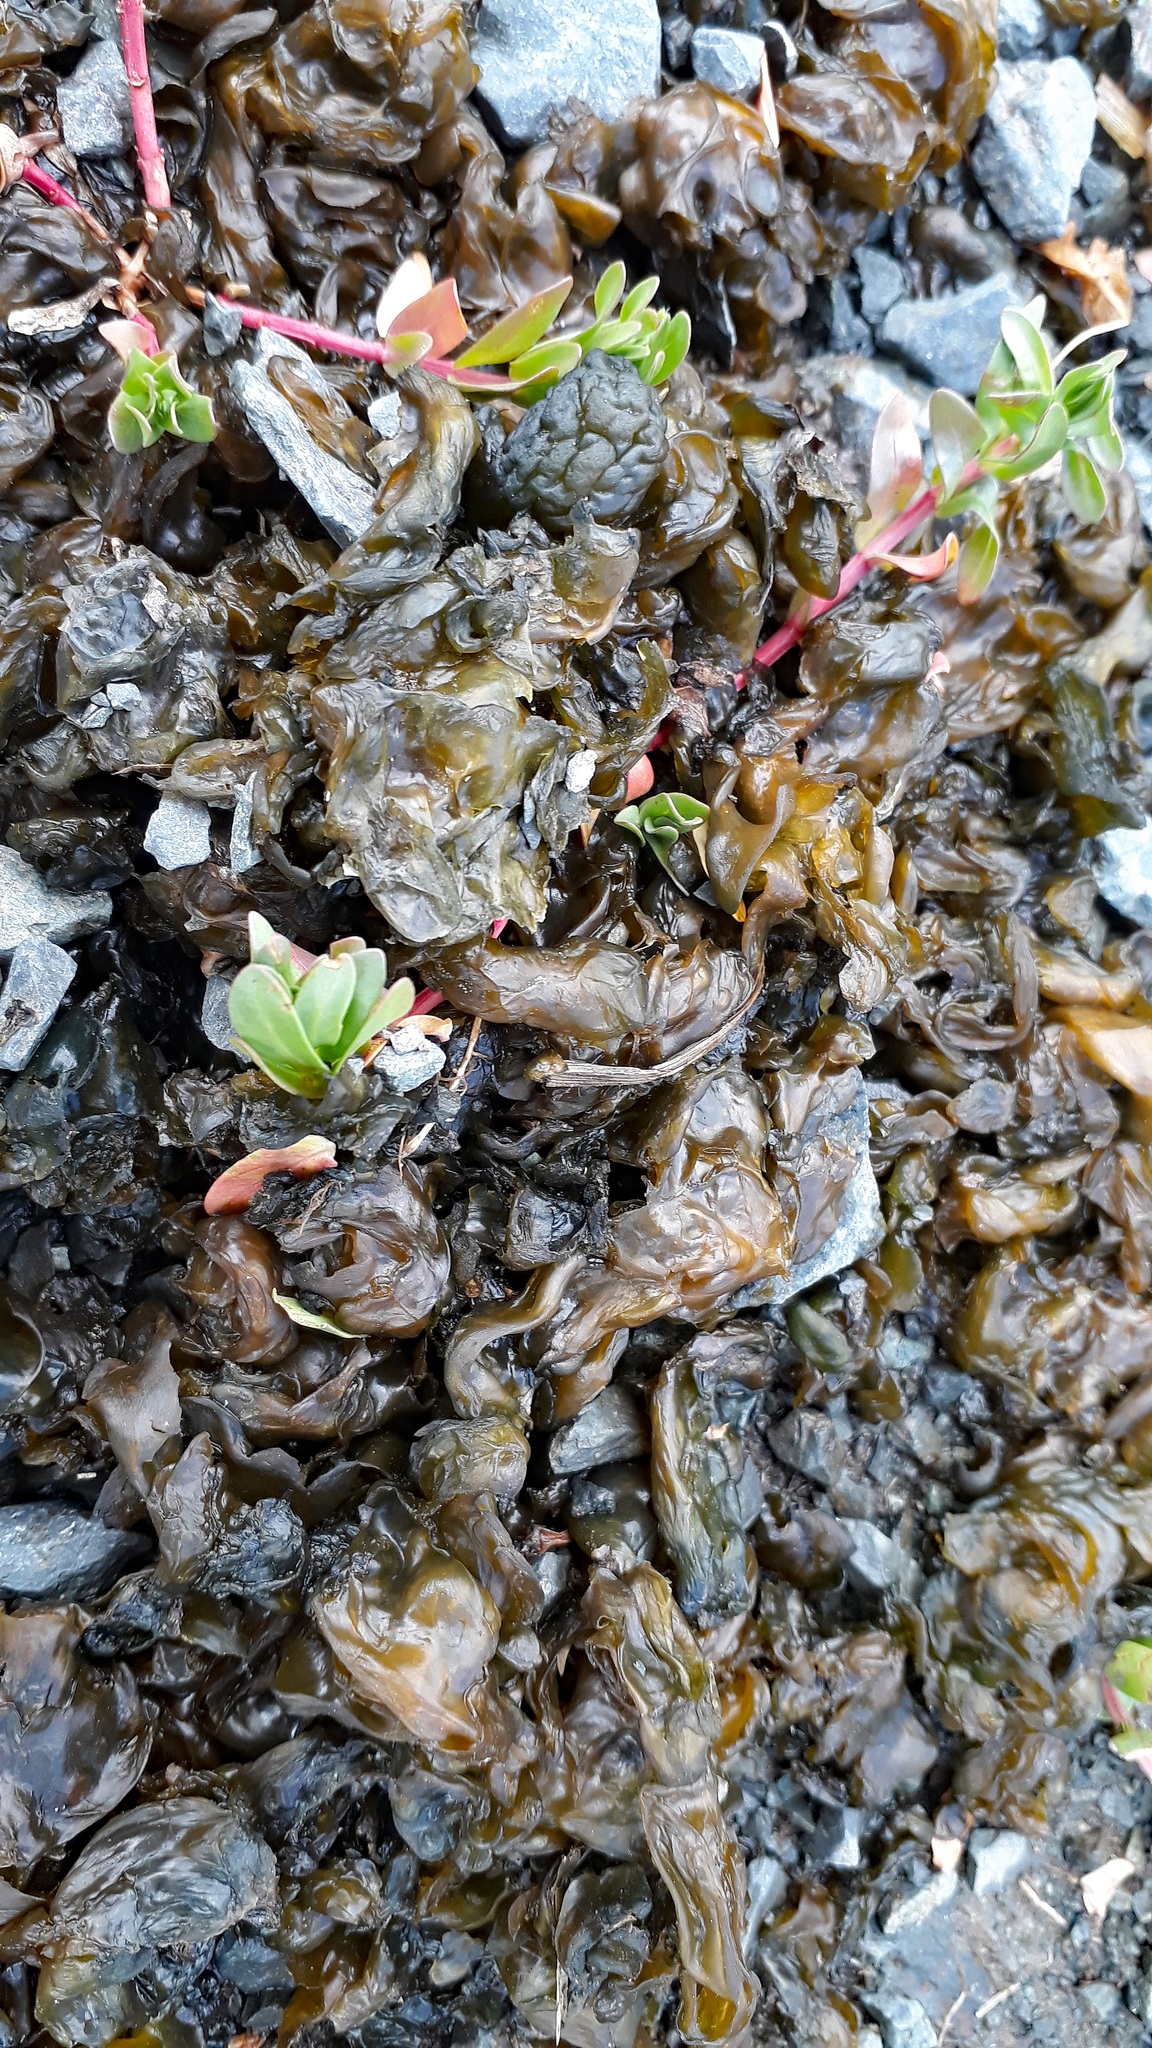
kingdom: Bacteria
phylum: Cyanobacteria
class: Cyanobacteriia
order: Cyanobacteriales
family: Nostocaceae
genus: Nostoc
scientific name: Nostoc commune
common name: Star jelly
